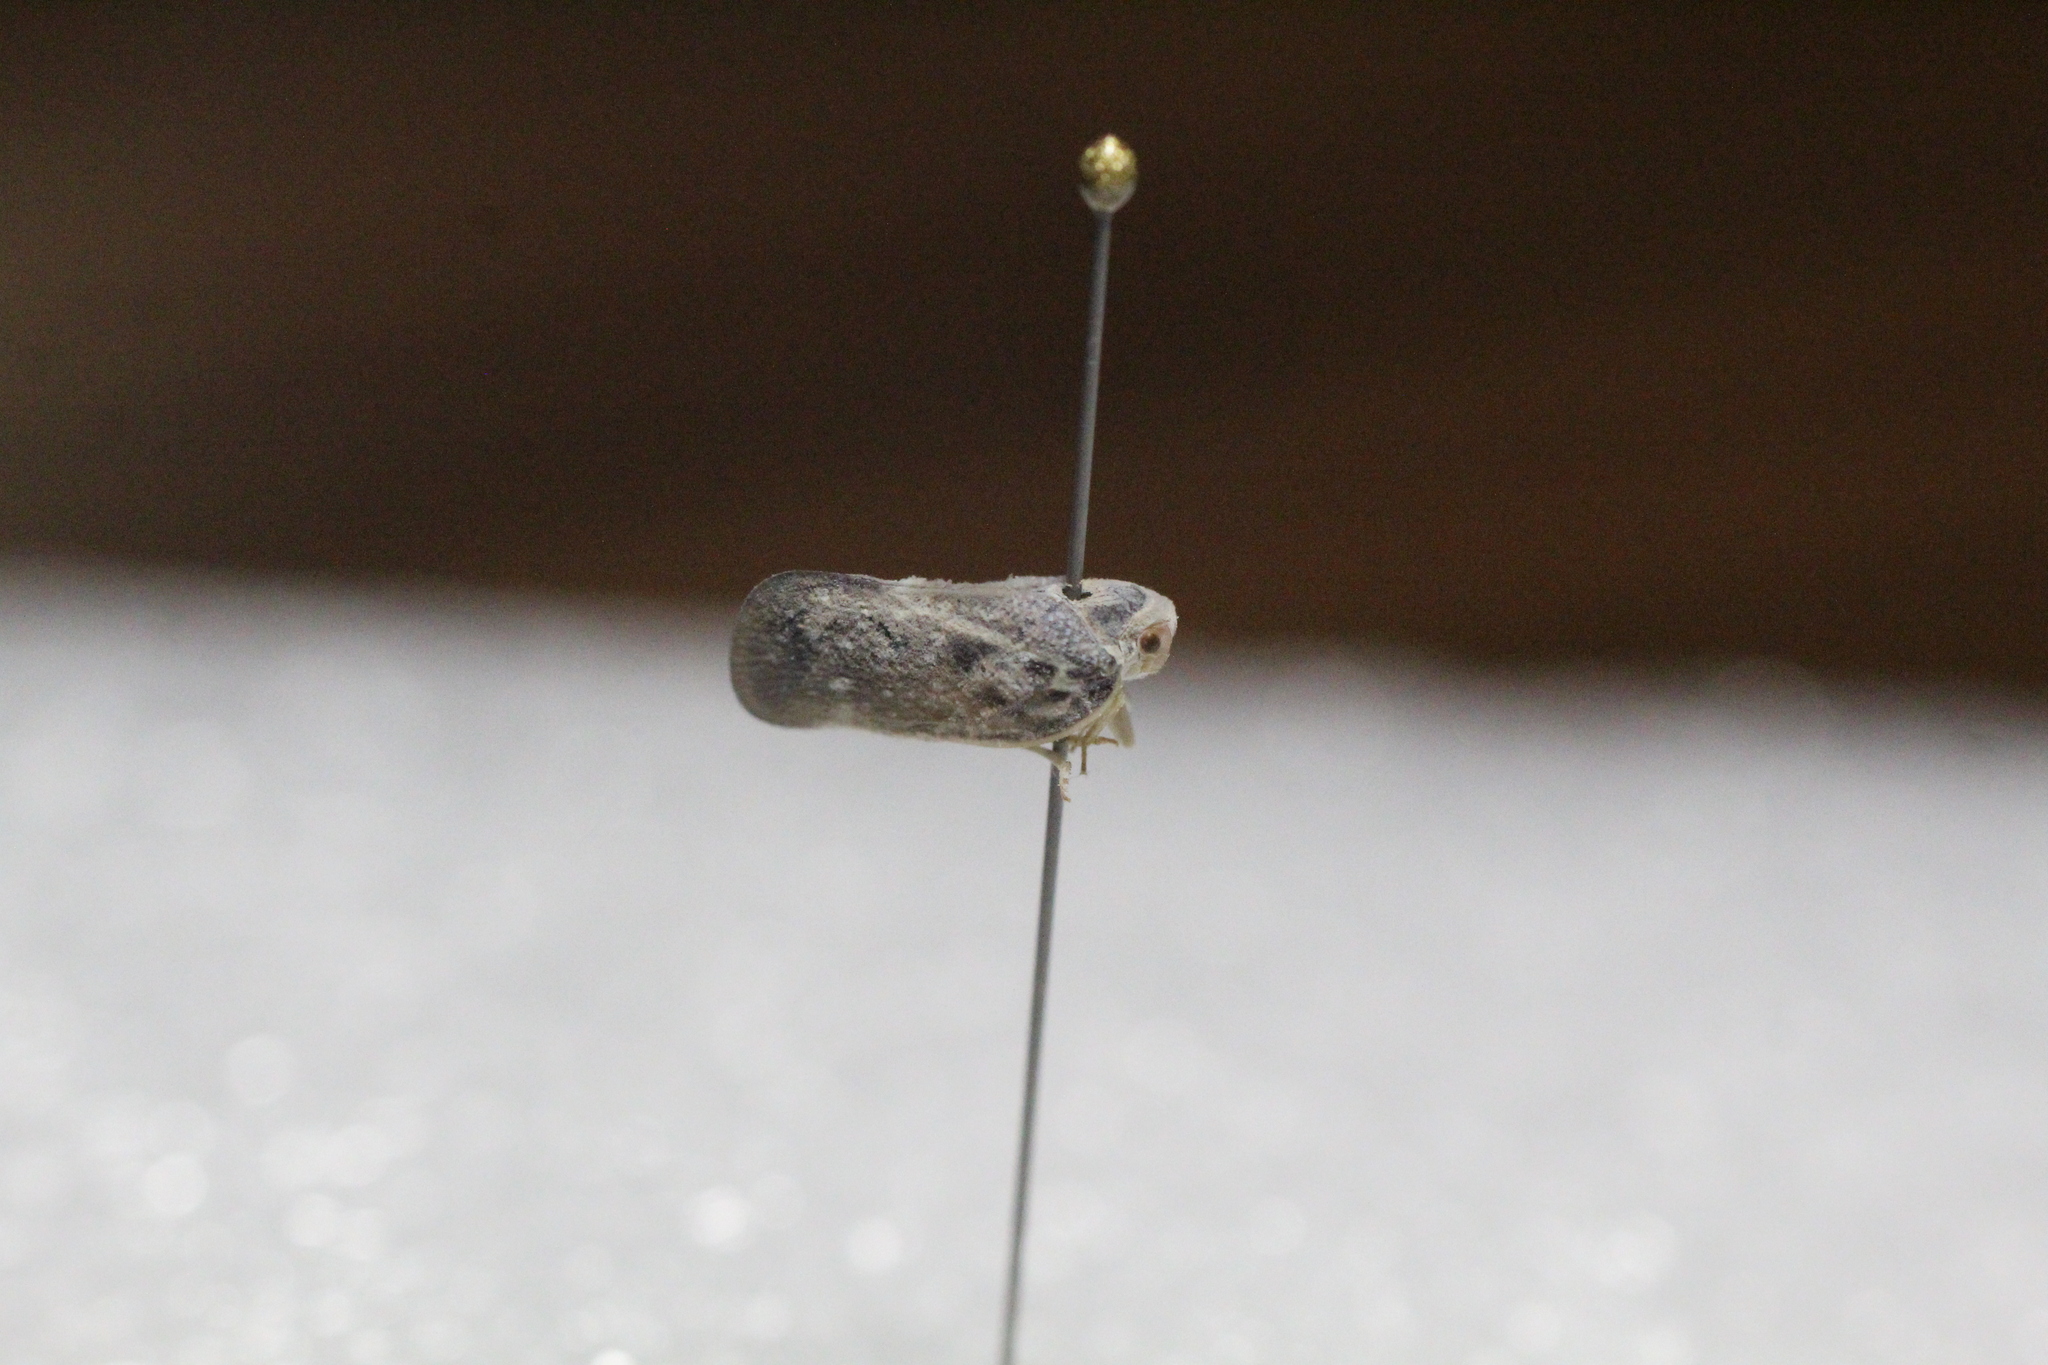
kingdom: Animalia
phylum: Arthropoda
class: Insecta
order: Hemiptera
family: Flatidae
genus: Metcalfa
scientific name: Metcalfa pruinosa
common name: Citrus flatid planthopper
